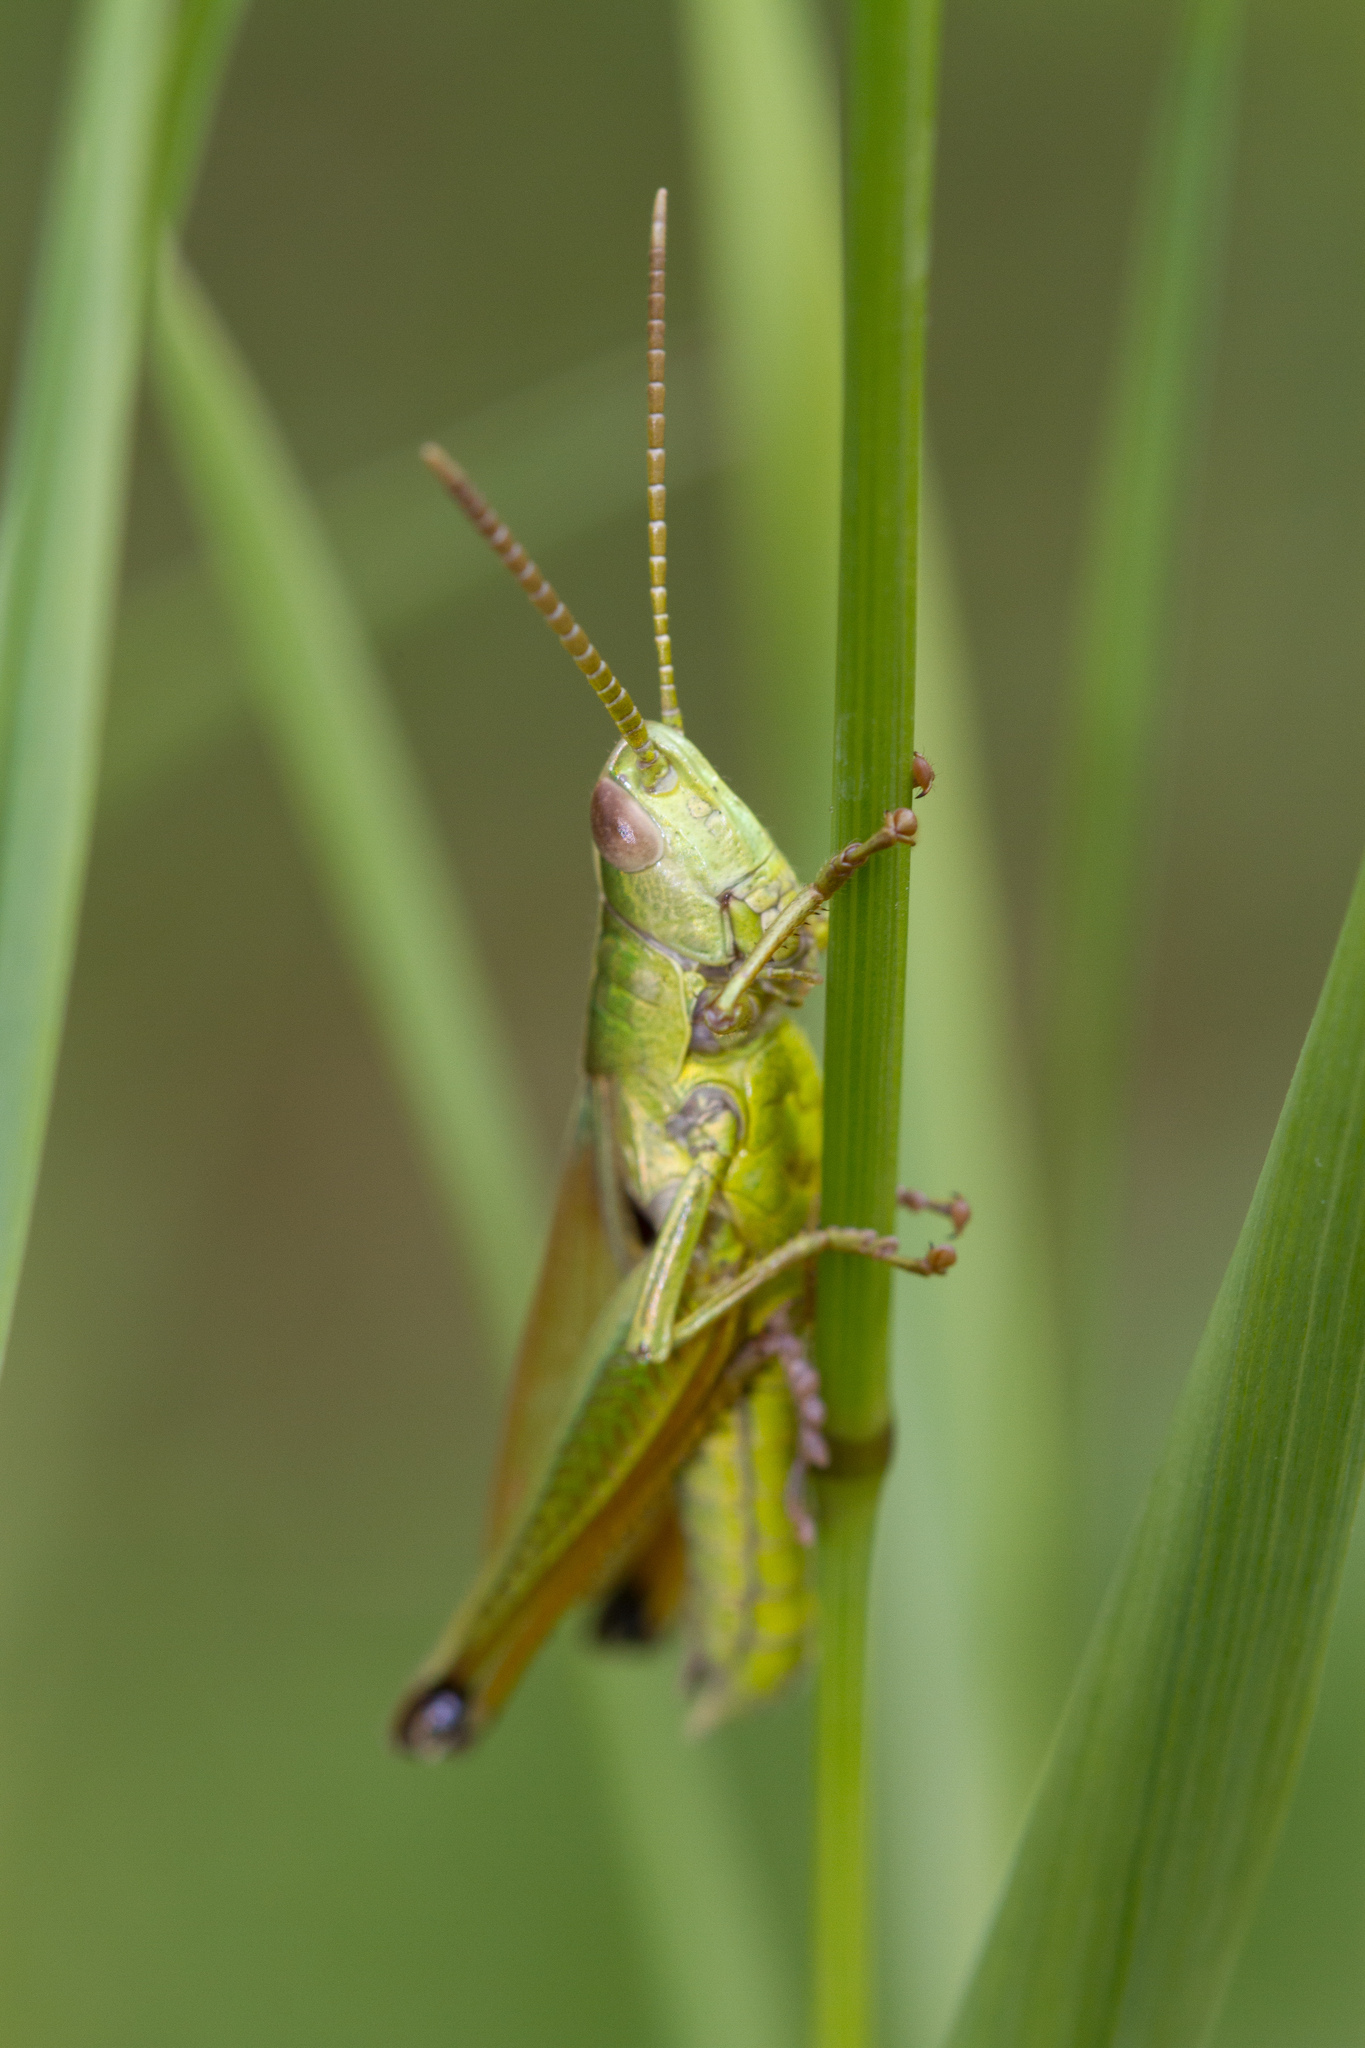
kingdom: Animalia
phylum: Arthropoda
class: Insecta
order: Orthoptera
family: Acrididae
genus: Chrysochraon
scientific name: Chrysochraon dispar
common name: Large gold grasshopper
